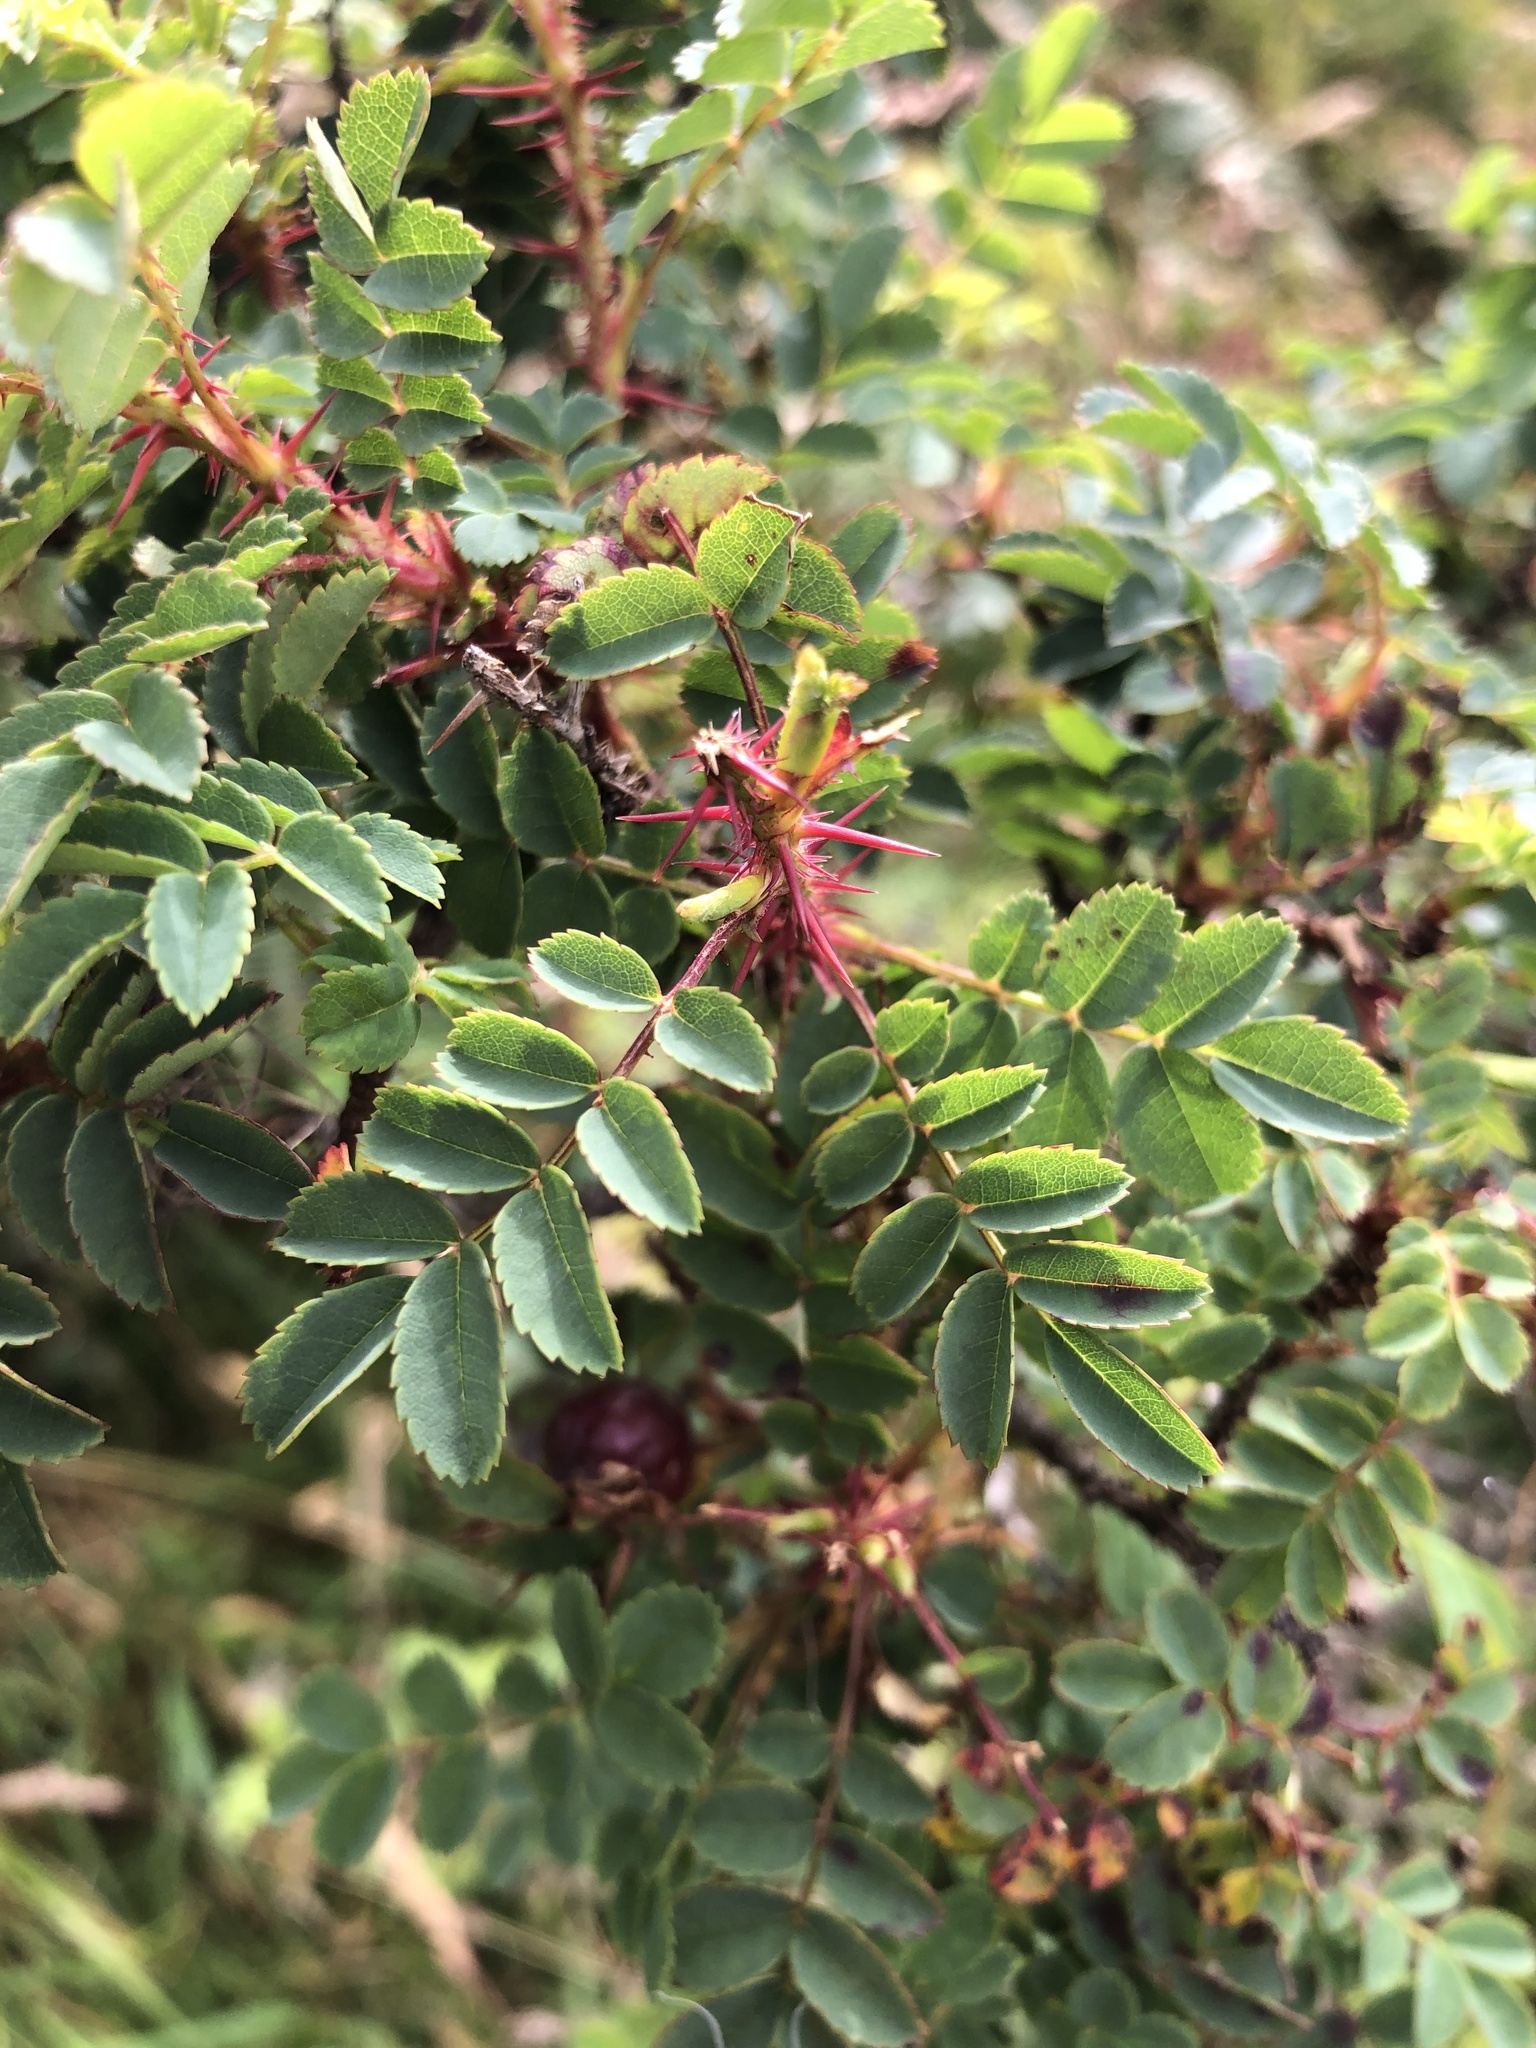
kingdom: Plantae
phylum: Tracheophyta
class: Magnoliopsida
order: Rosales
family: Rosaceae
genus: Rosa
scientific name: Rosa spinosissima
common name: Burnet rose
